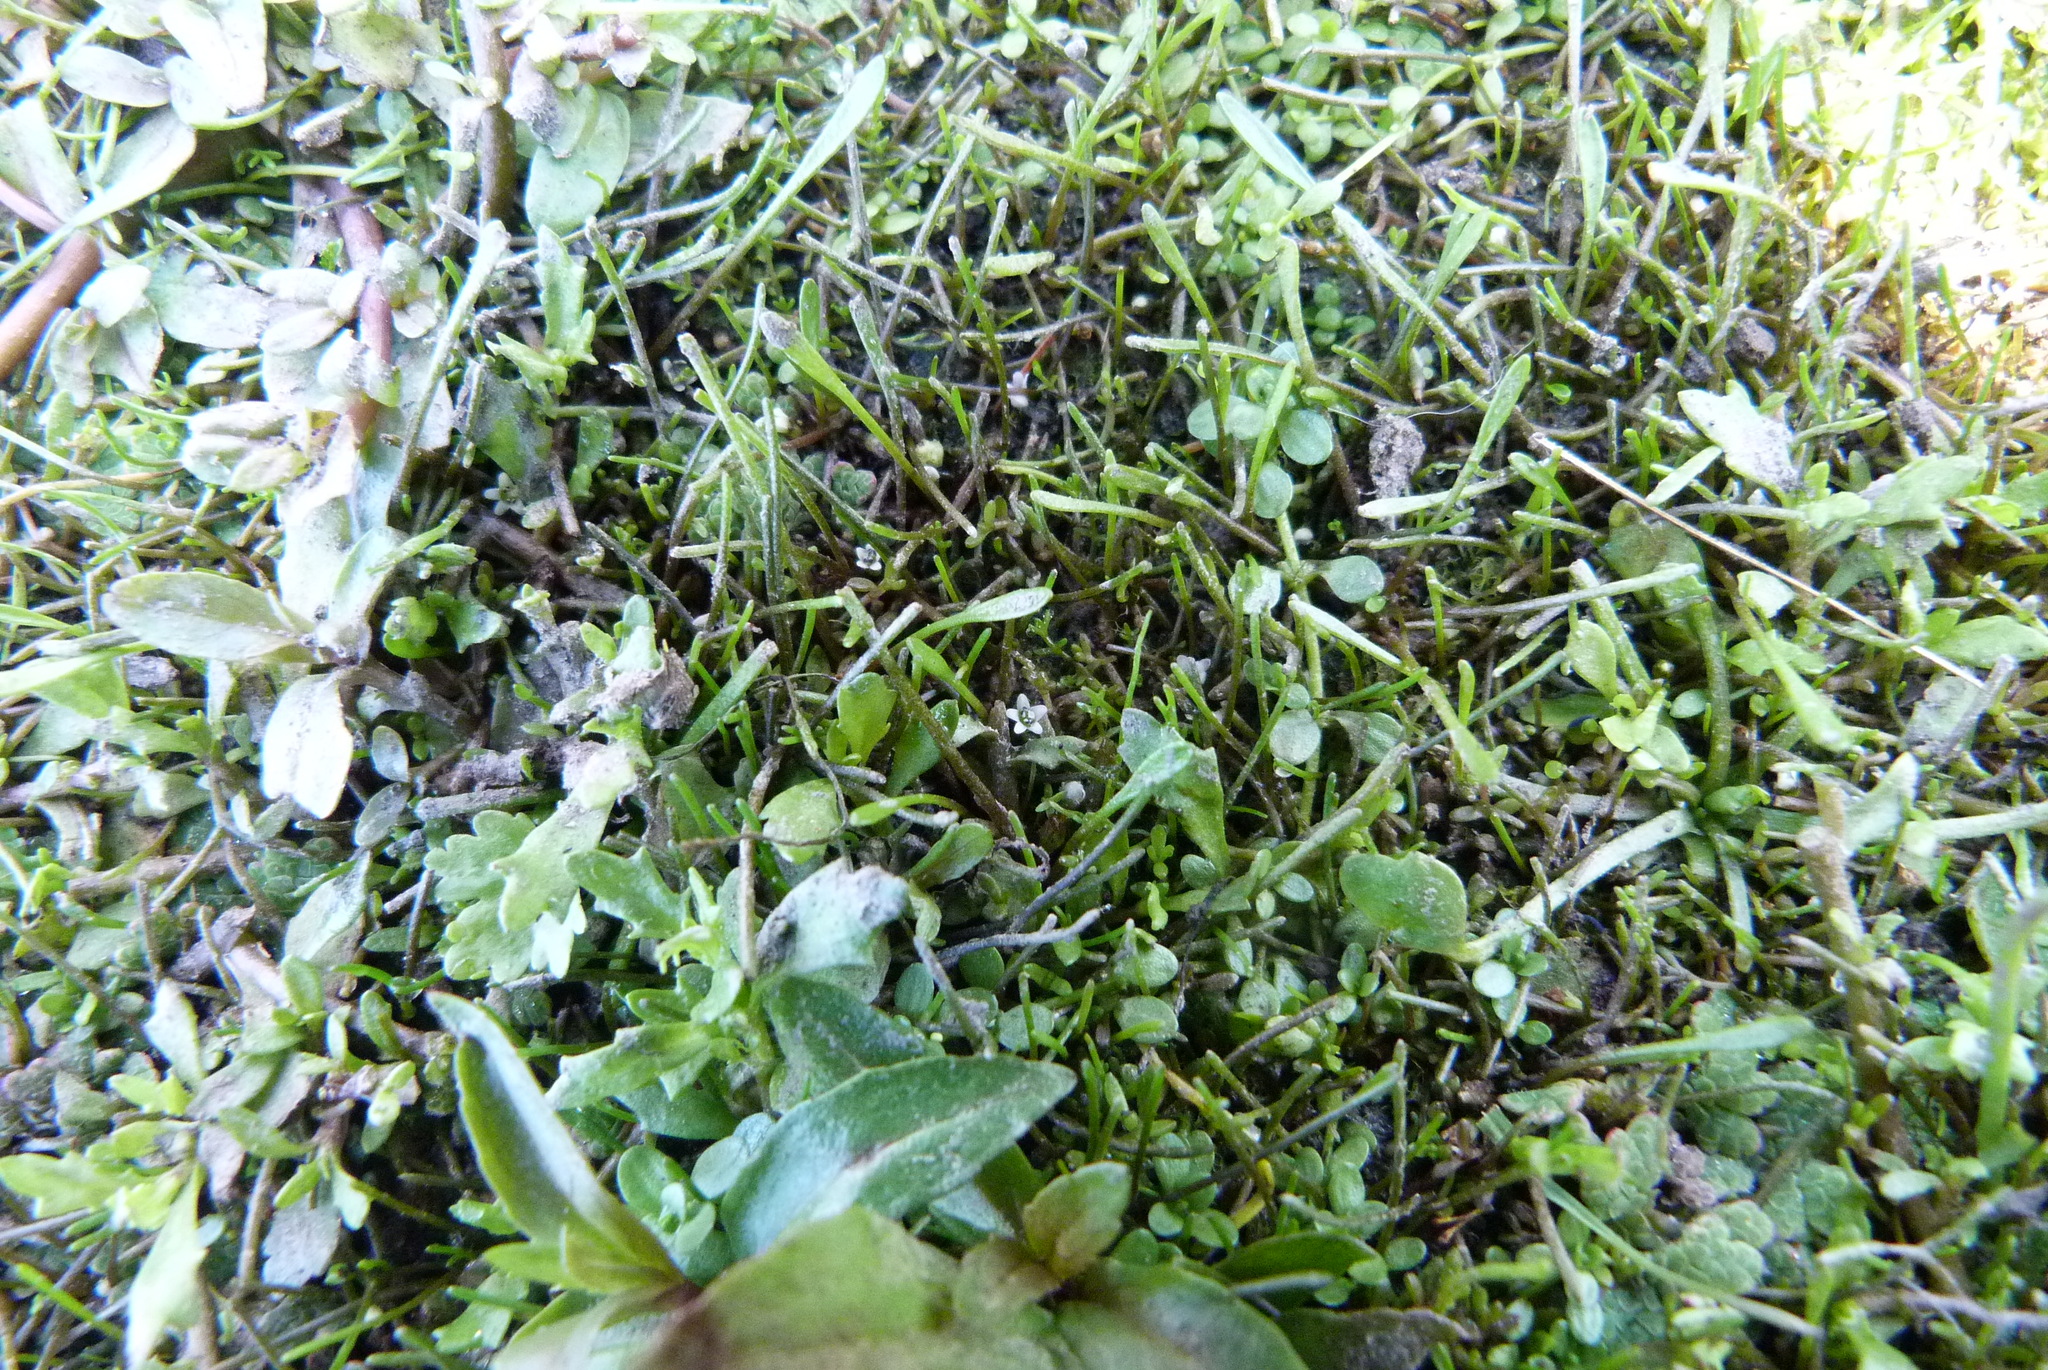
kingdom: Plantae
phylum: Tracheophyta
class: Magnoliopsida
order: Lamiales
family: Scrophulariaceae
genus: Limosella
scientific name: Limosella australis
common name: Welsh mudwort
